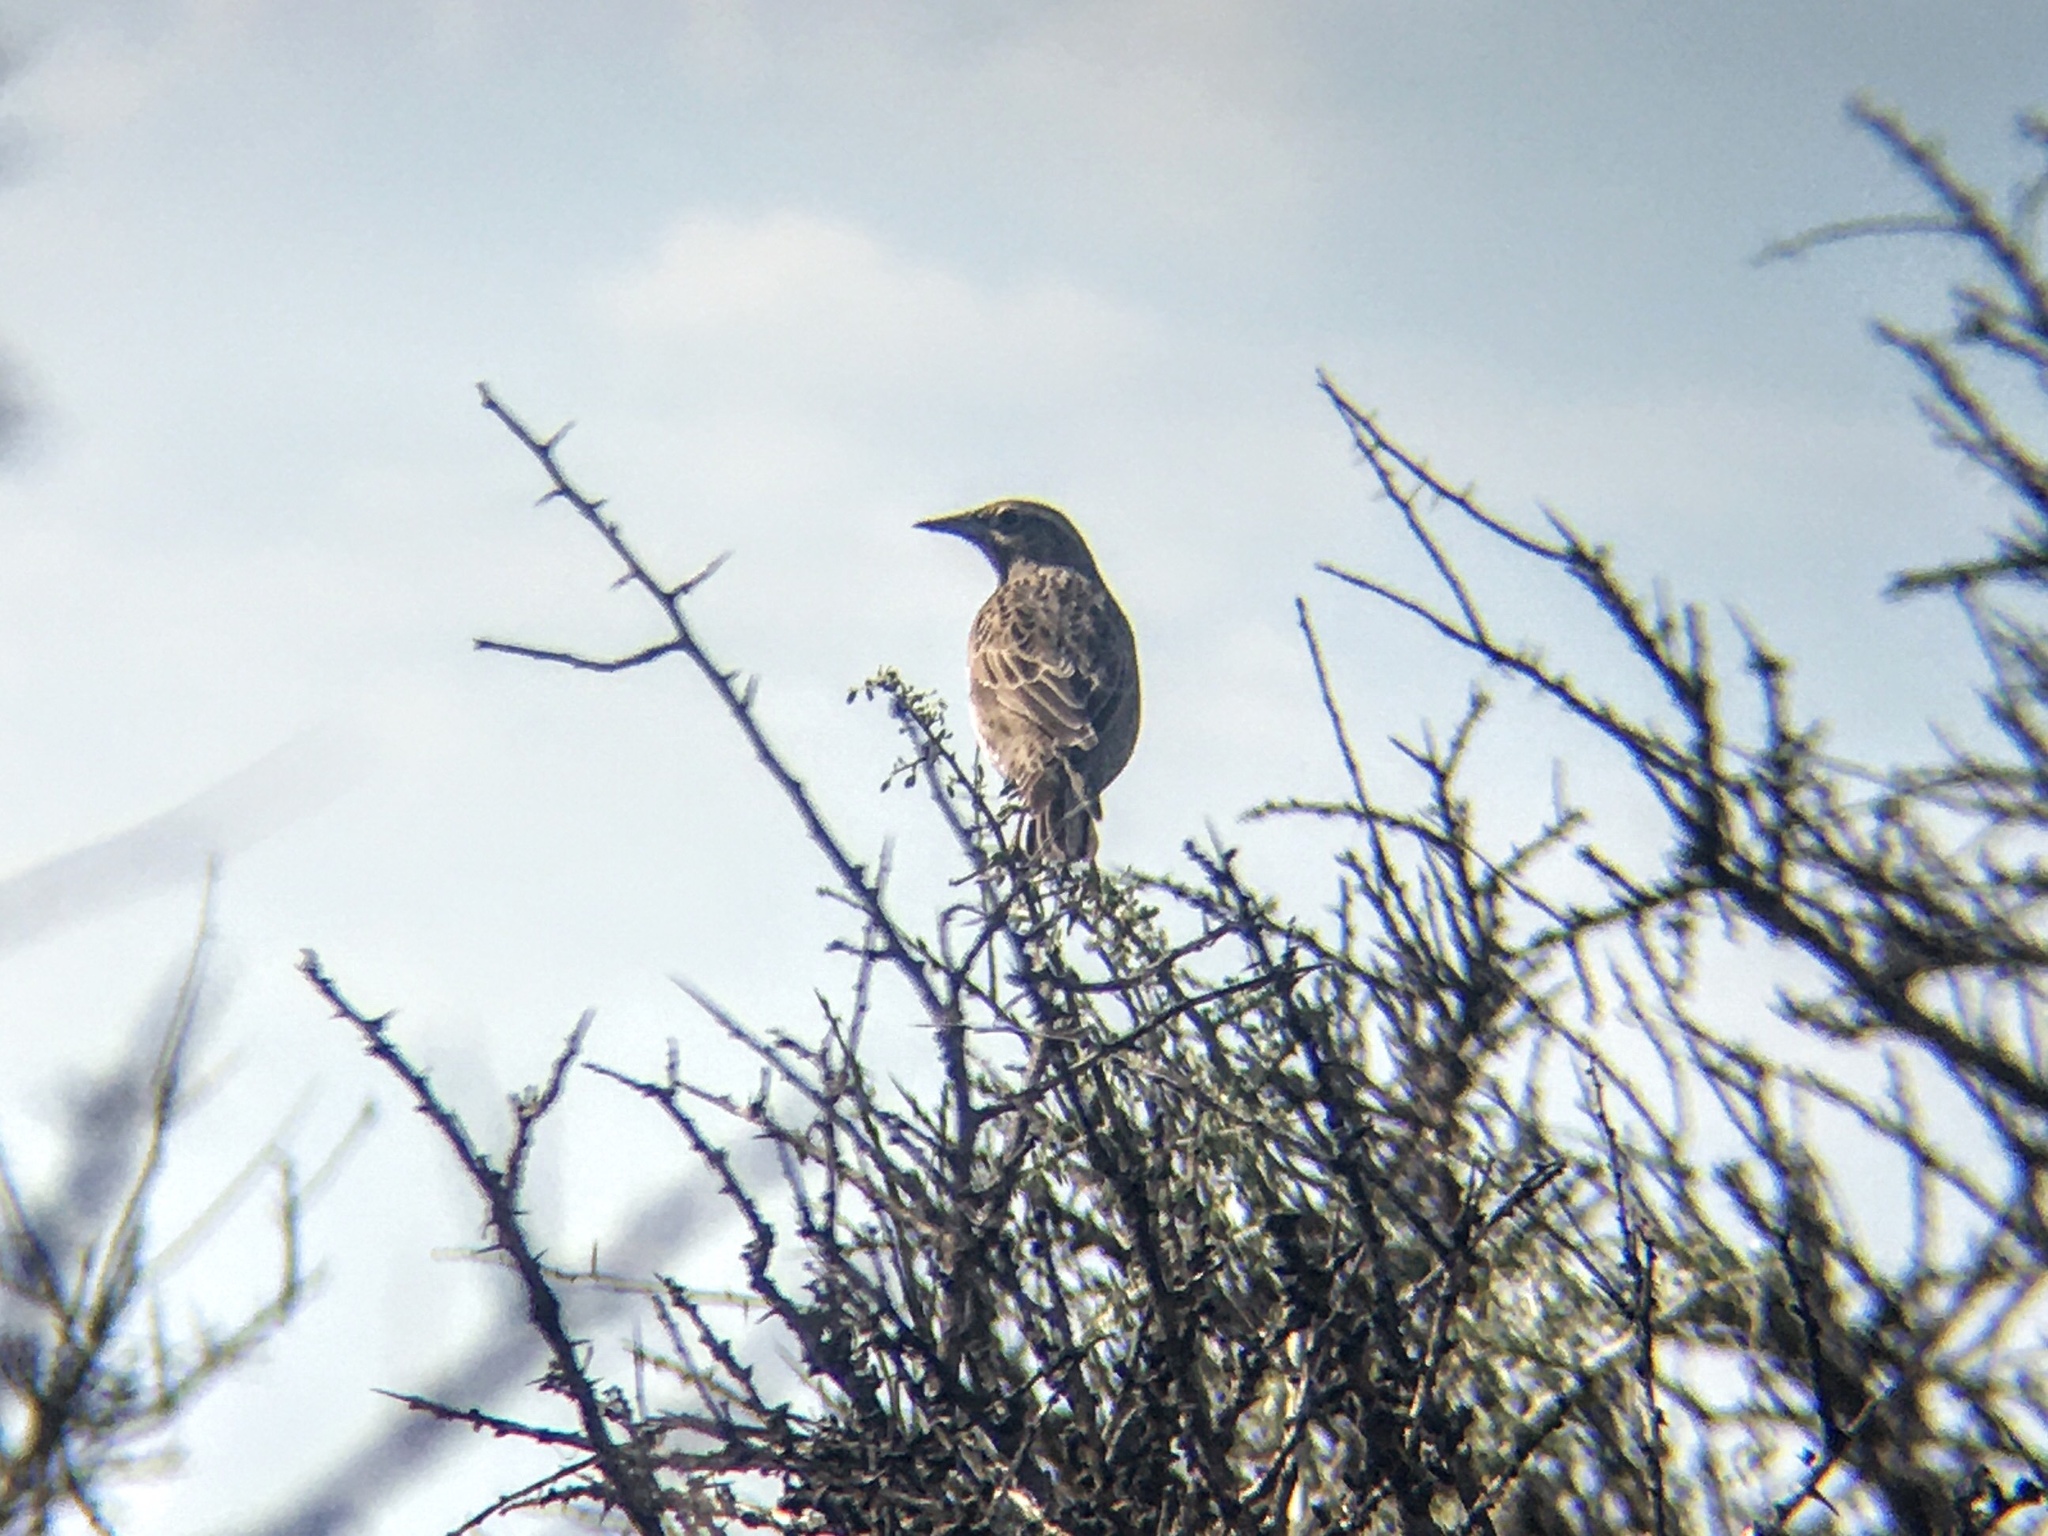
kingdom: Animalia
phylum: Chordata
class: Aves
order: Passeriformes
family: Icteridae
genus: Sturnella
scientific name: Sturnella loyca
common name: Long-tailed meadowlark
